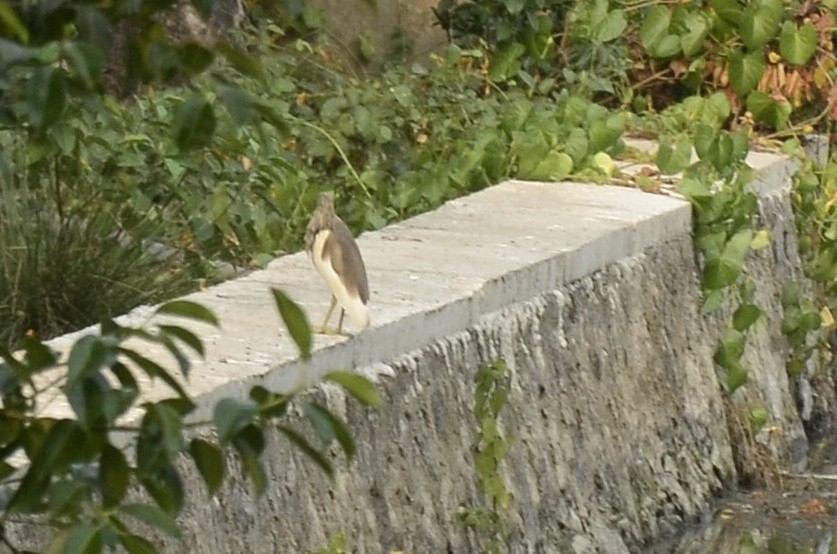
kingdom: Animalia
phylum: Chordata
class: Aves
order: Pelecaniformes
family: Ardeidae
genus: Ardeola
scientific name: Ardeola grayii
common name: Indian pond heron
